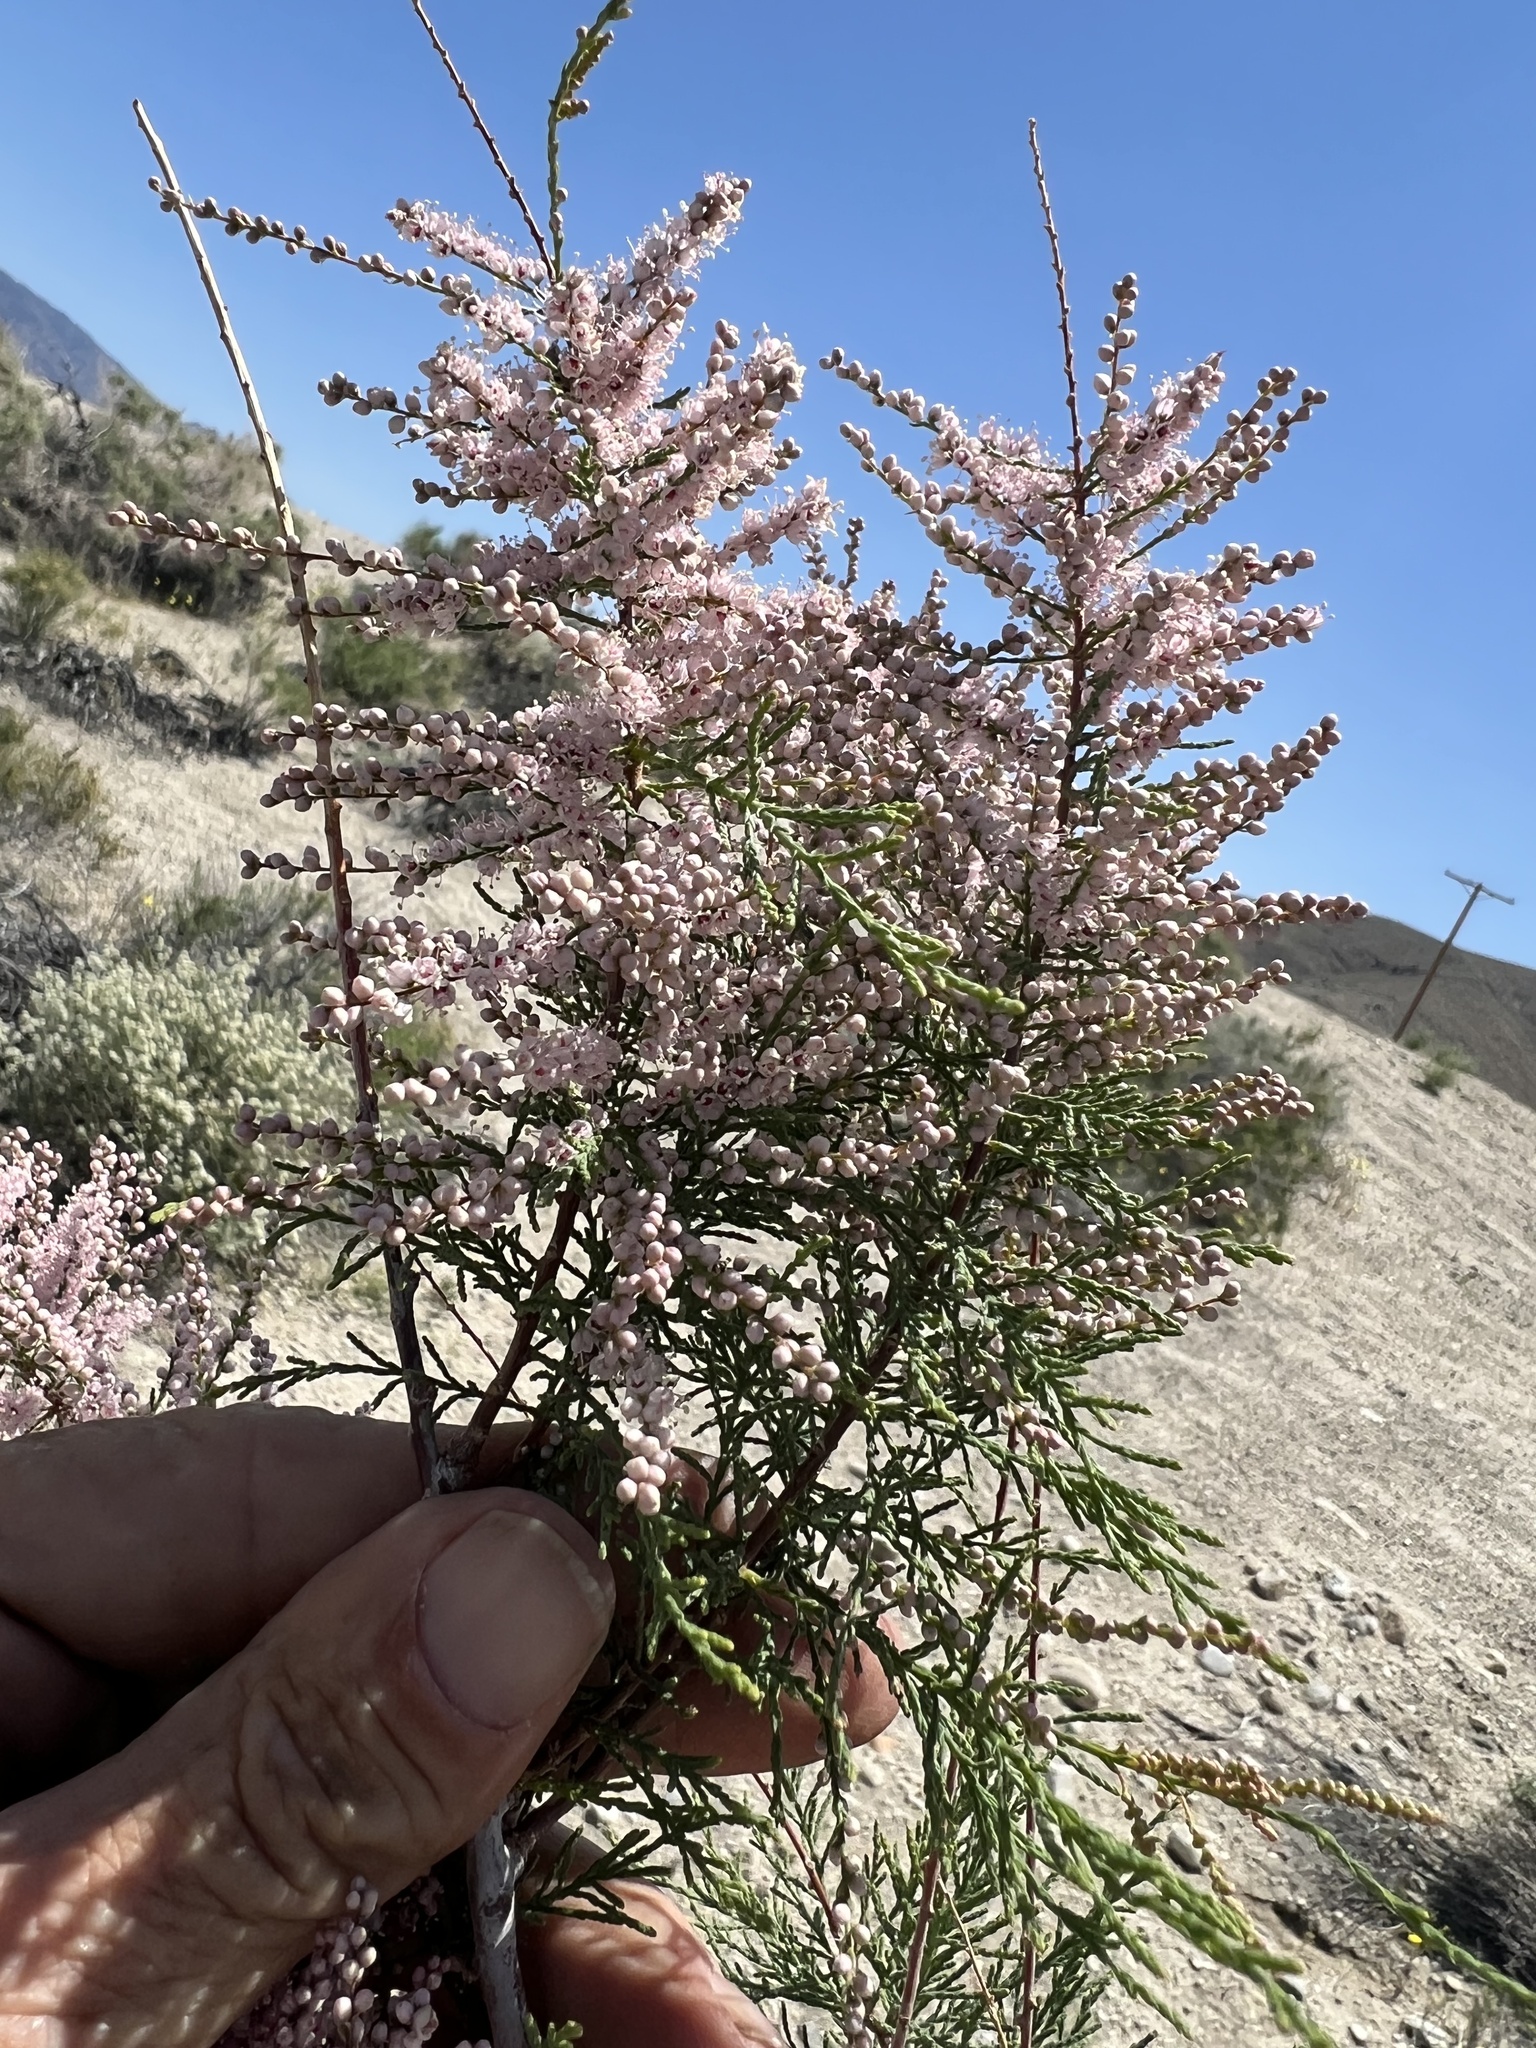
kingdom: Plantae
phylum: Tracheophyta
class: Magnoliopsida
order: Caryophyllales
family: Tamaricaceae
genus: Tamarix
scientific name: Tamarix ramosissima
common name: Pink tamarisk
